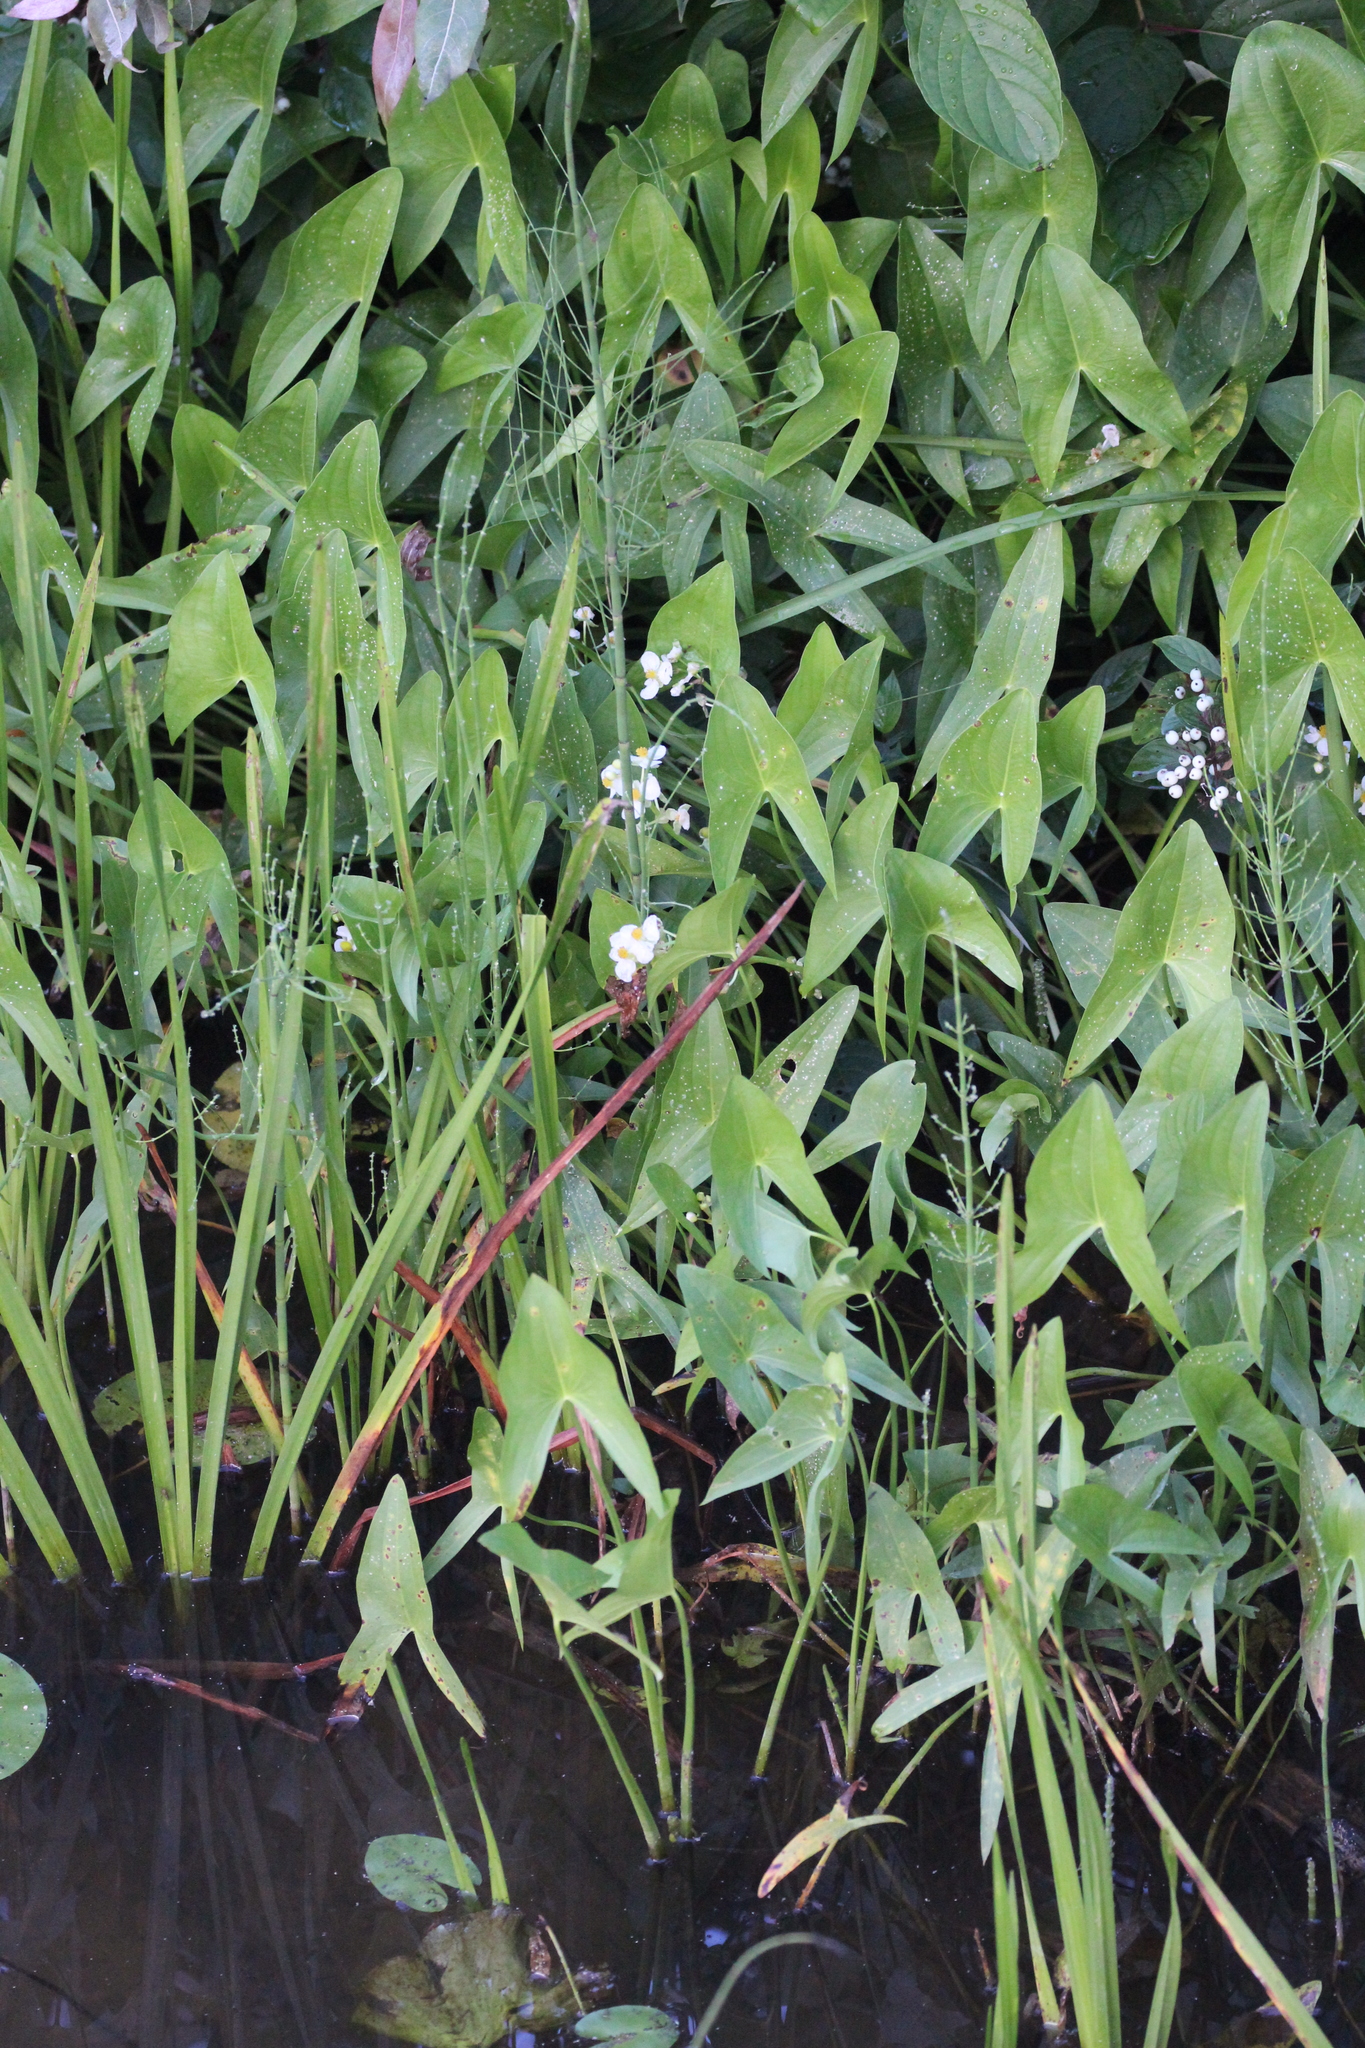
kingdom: Plantae
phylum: Tracheophyta
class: Liliopsida
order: Alismatales
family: Alismataceae
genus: Sagittaria
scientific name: Sagittaria latifolia
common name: Duck-potato
